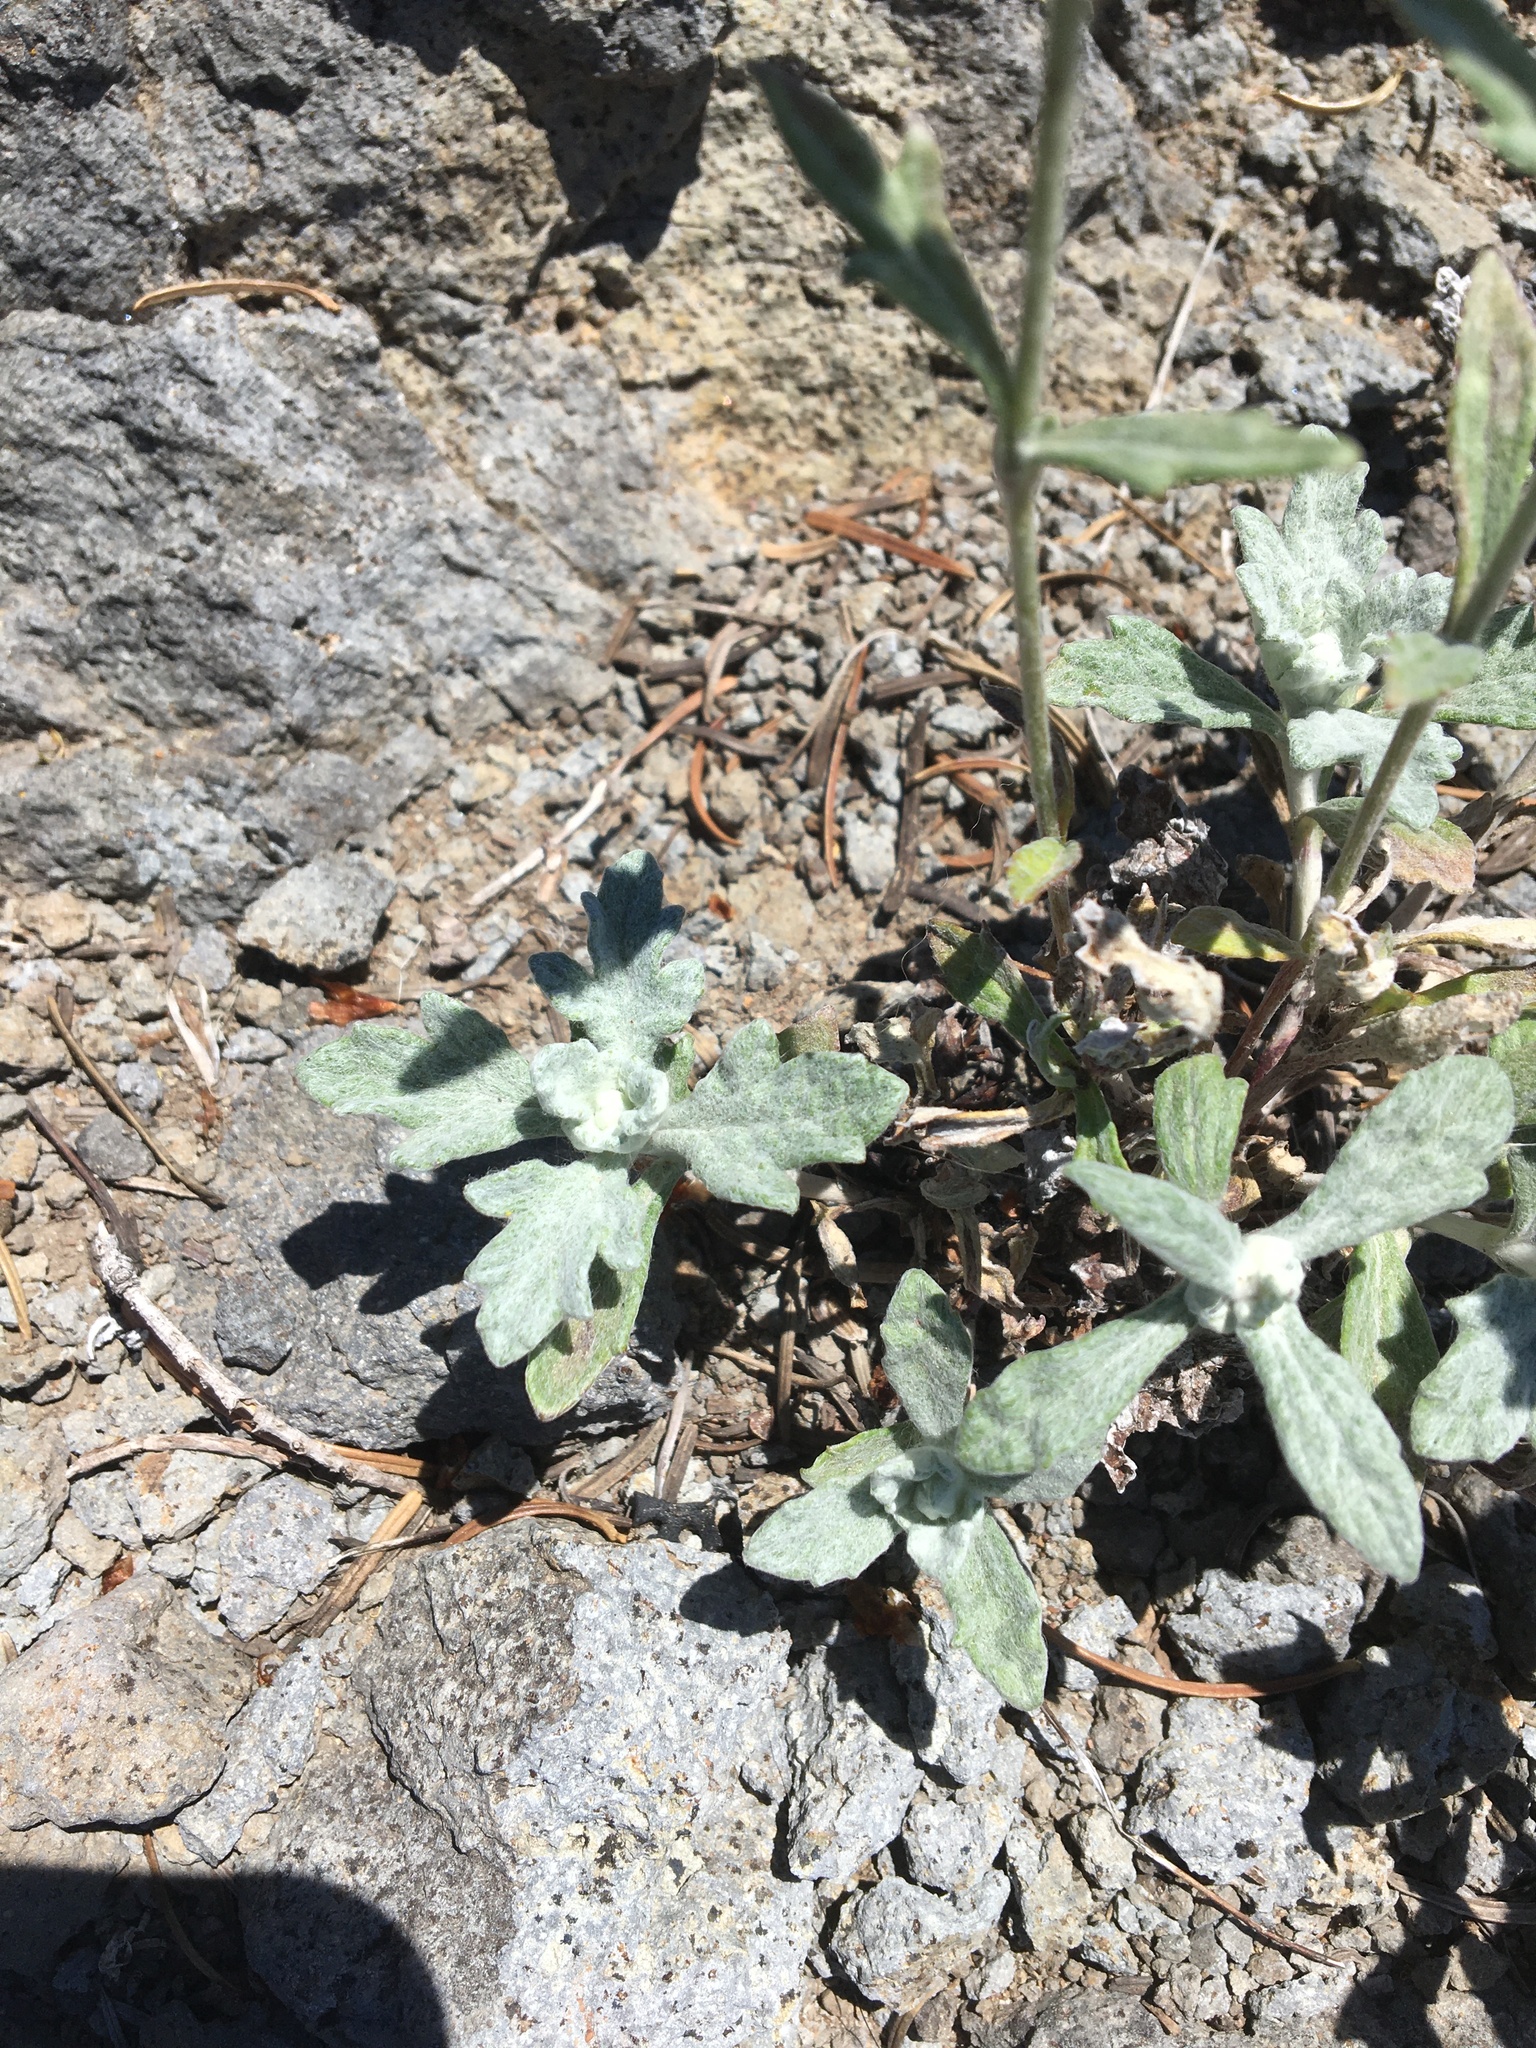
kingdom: Plantae
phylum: Tracheophyta
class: Magnoliopsida
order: Asterales
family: Asteraceae
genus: Eriophyllum
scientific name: Eriophyllum lanatum
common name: Common woolly-sunflower
